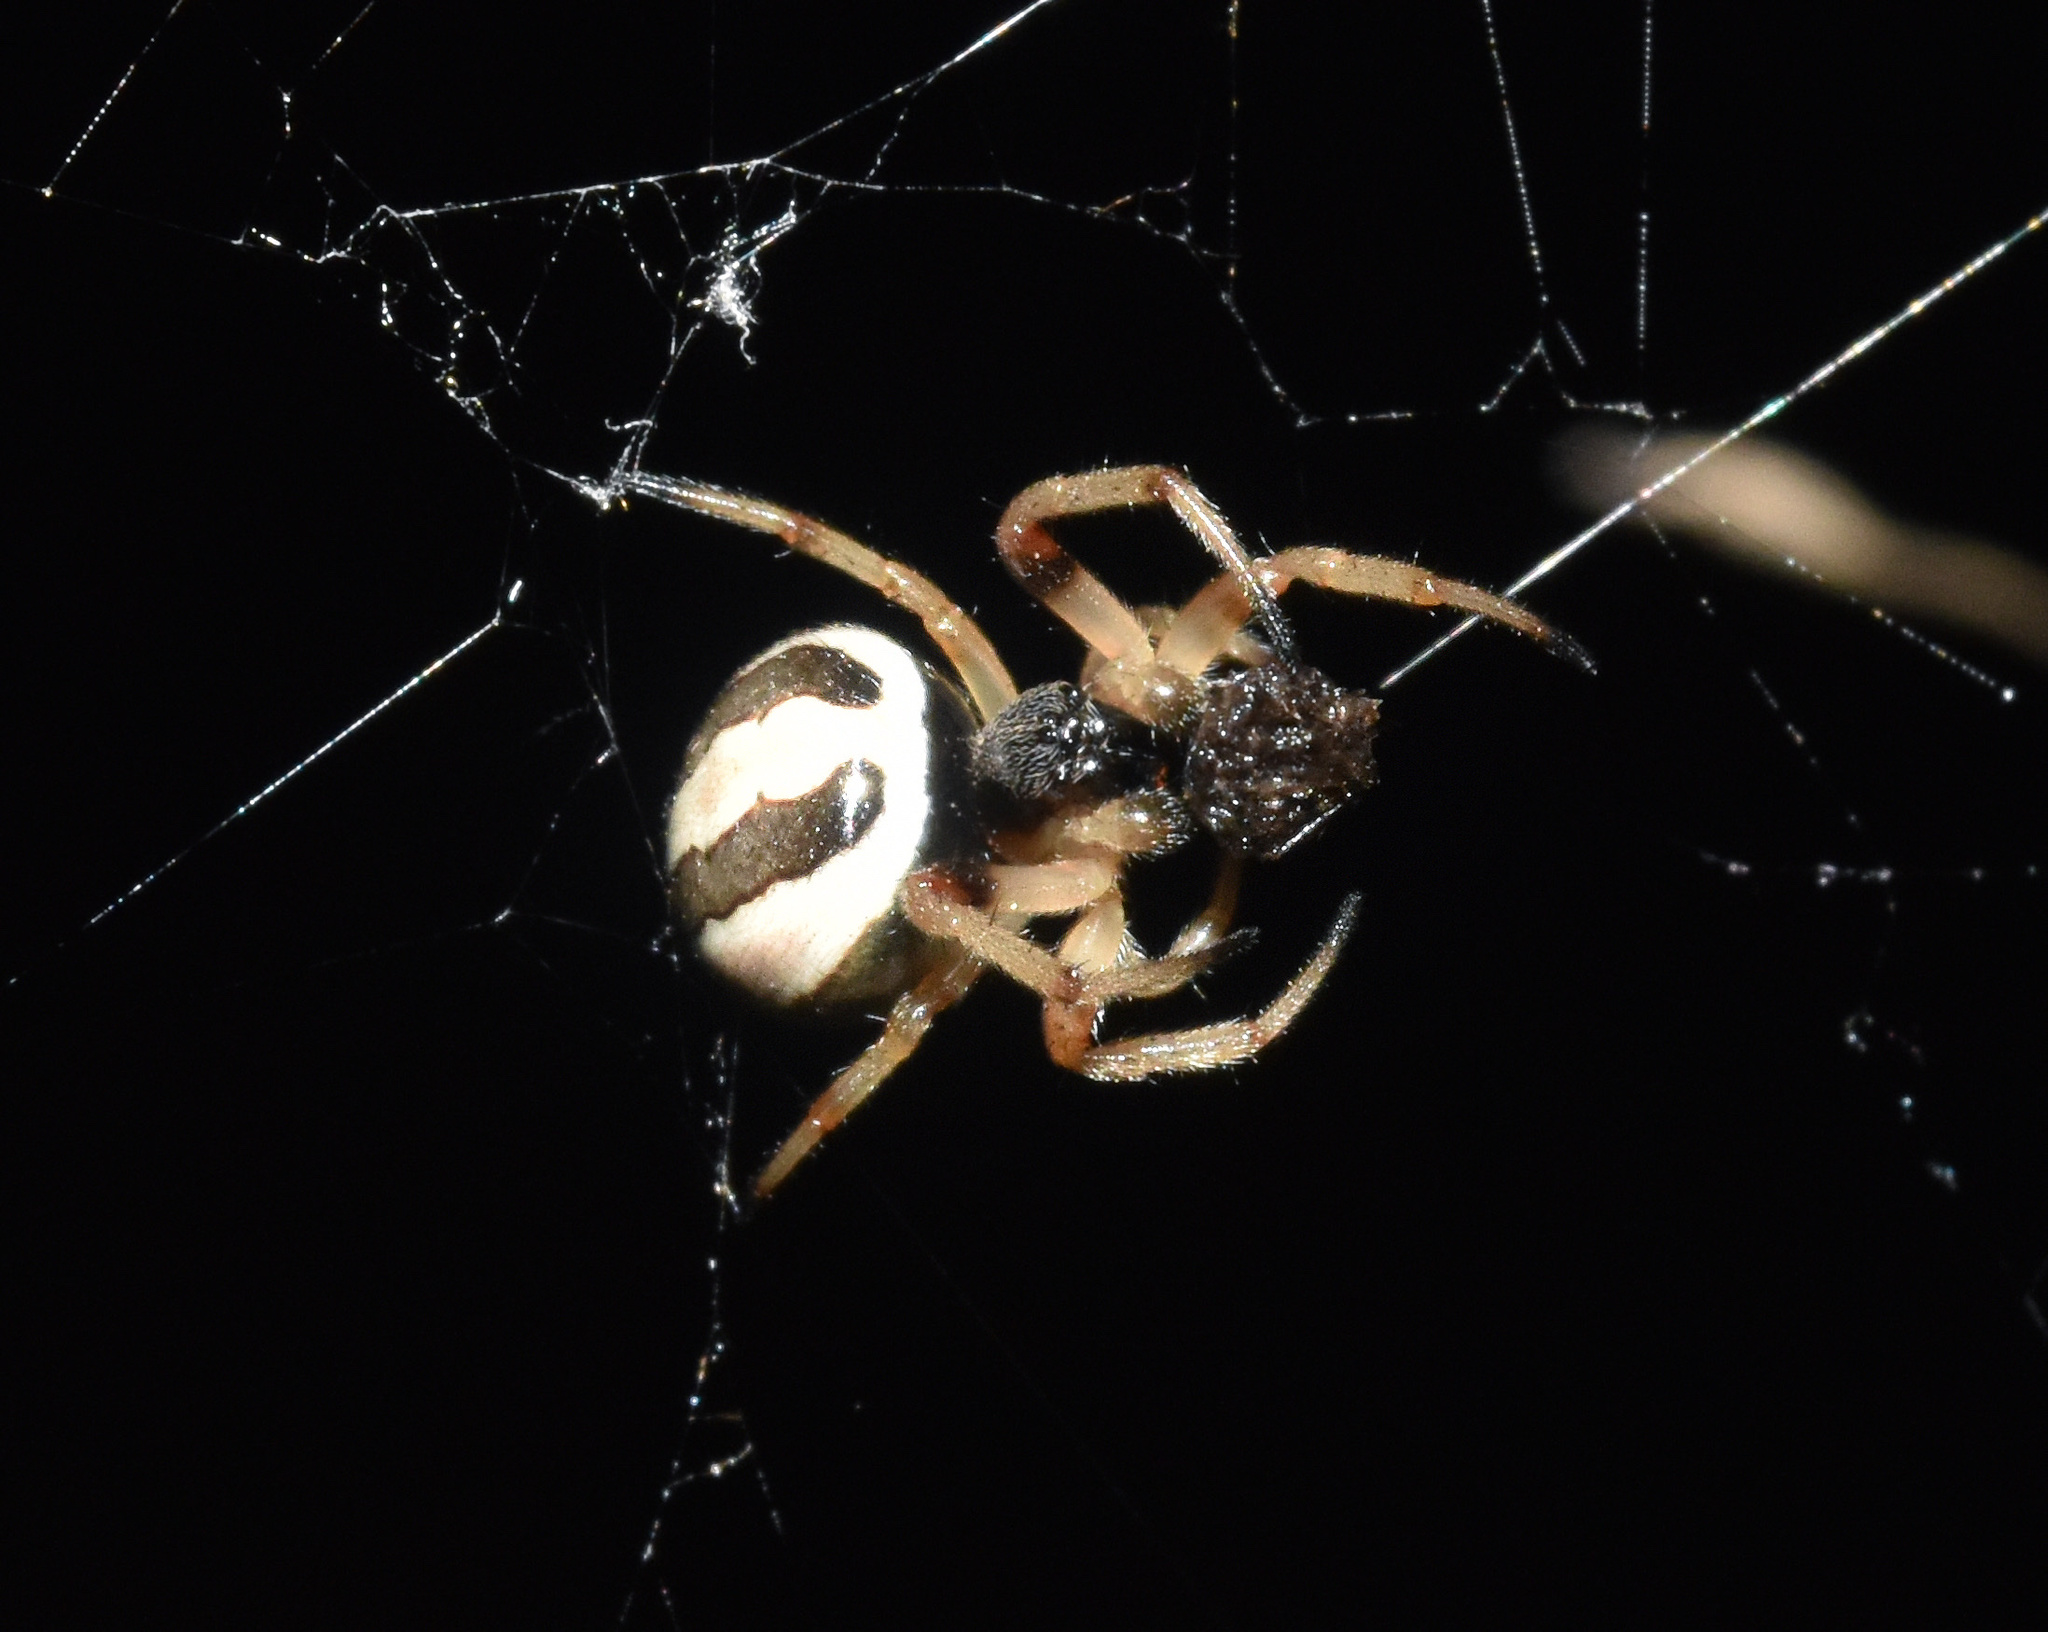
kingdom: Animalia
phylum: Arthropoda
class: Arachnida
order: Araneae
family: Araneidae
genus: Singa
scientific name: Singa albodorsata
